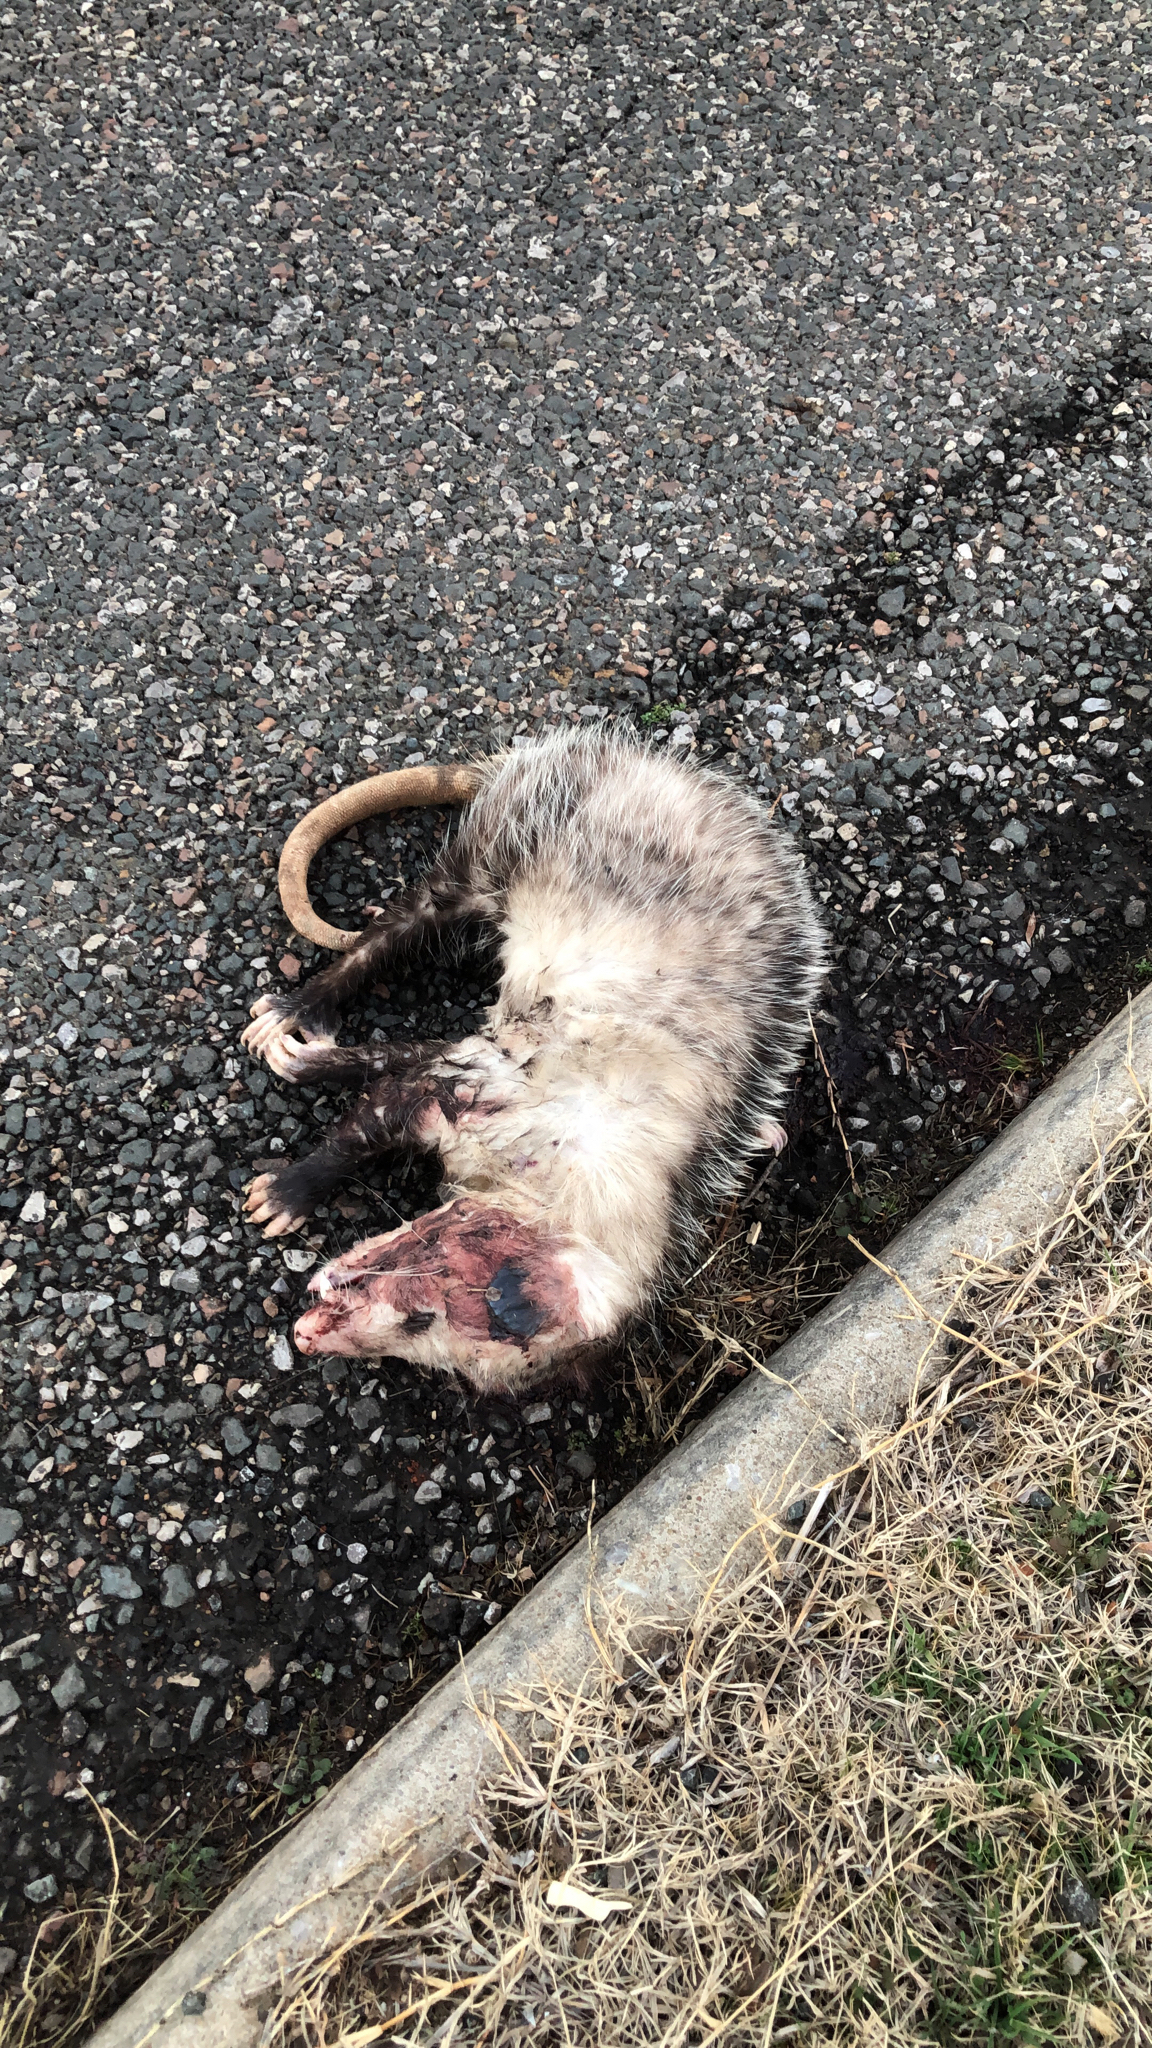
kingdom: Animalia
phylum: Chordata
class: Mammalia
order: Didelphimorphia
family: Didelphidae
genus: Didelphis
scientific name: Didelphis virginiana
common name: Virginia opossum
